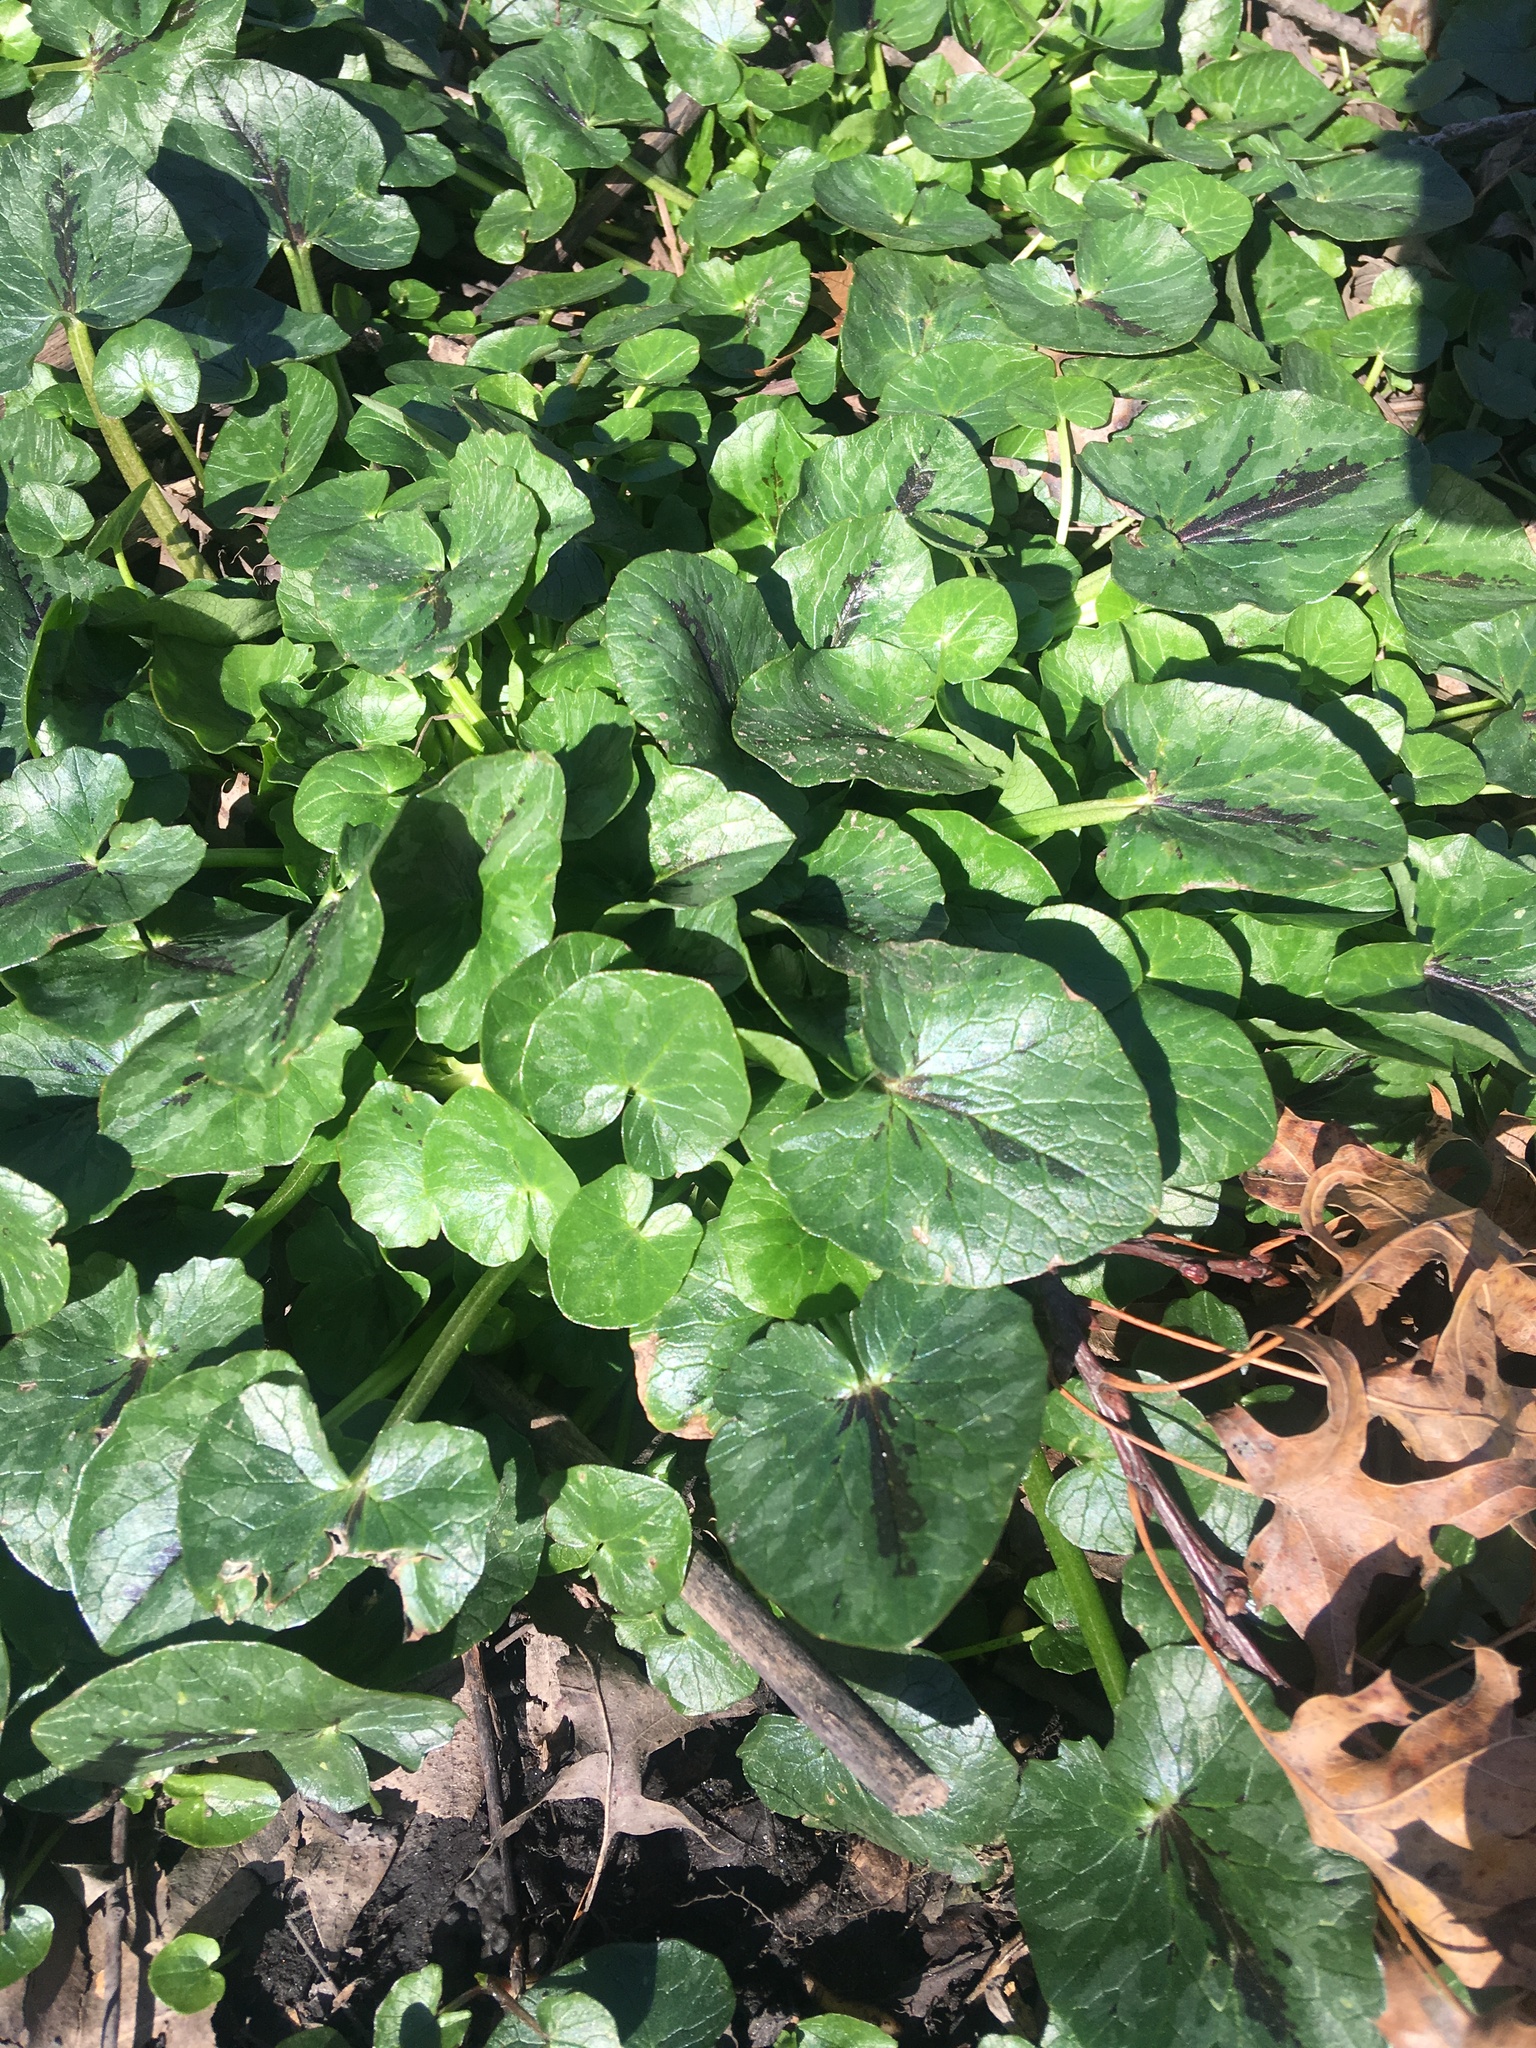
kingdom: Plantae
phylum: Tracheophyta
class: Magnoliopsida
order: Ranunculales
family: Ranunculaceae
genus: Ficaria
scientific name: Ficaria verna
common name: Lesser celandine
